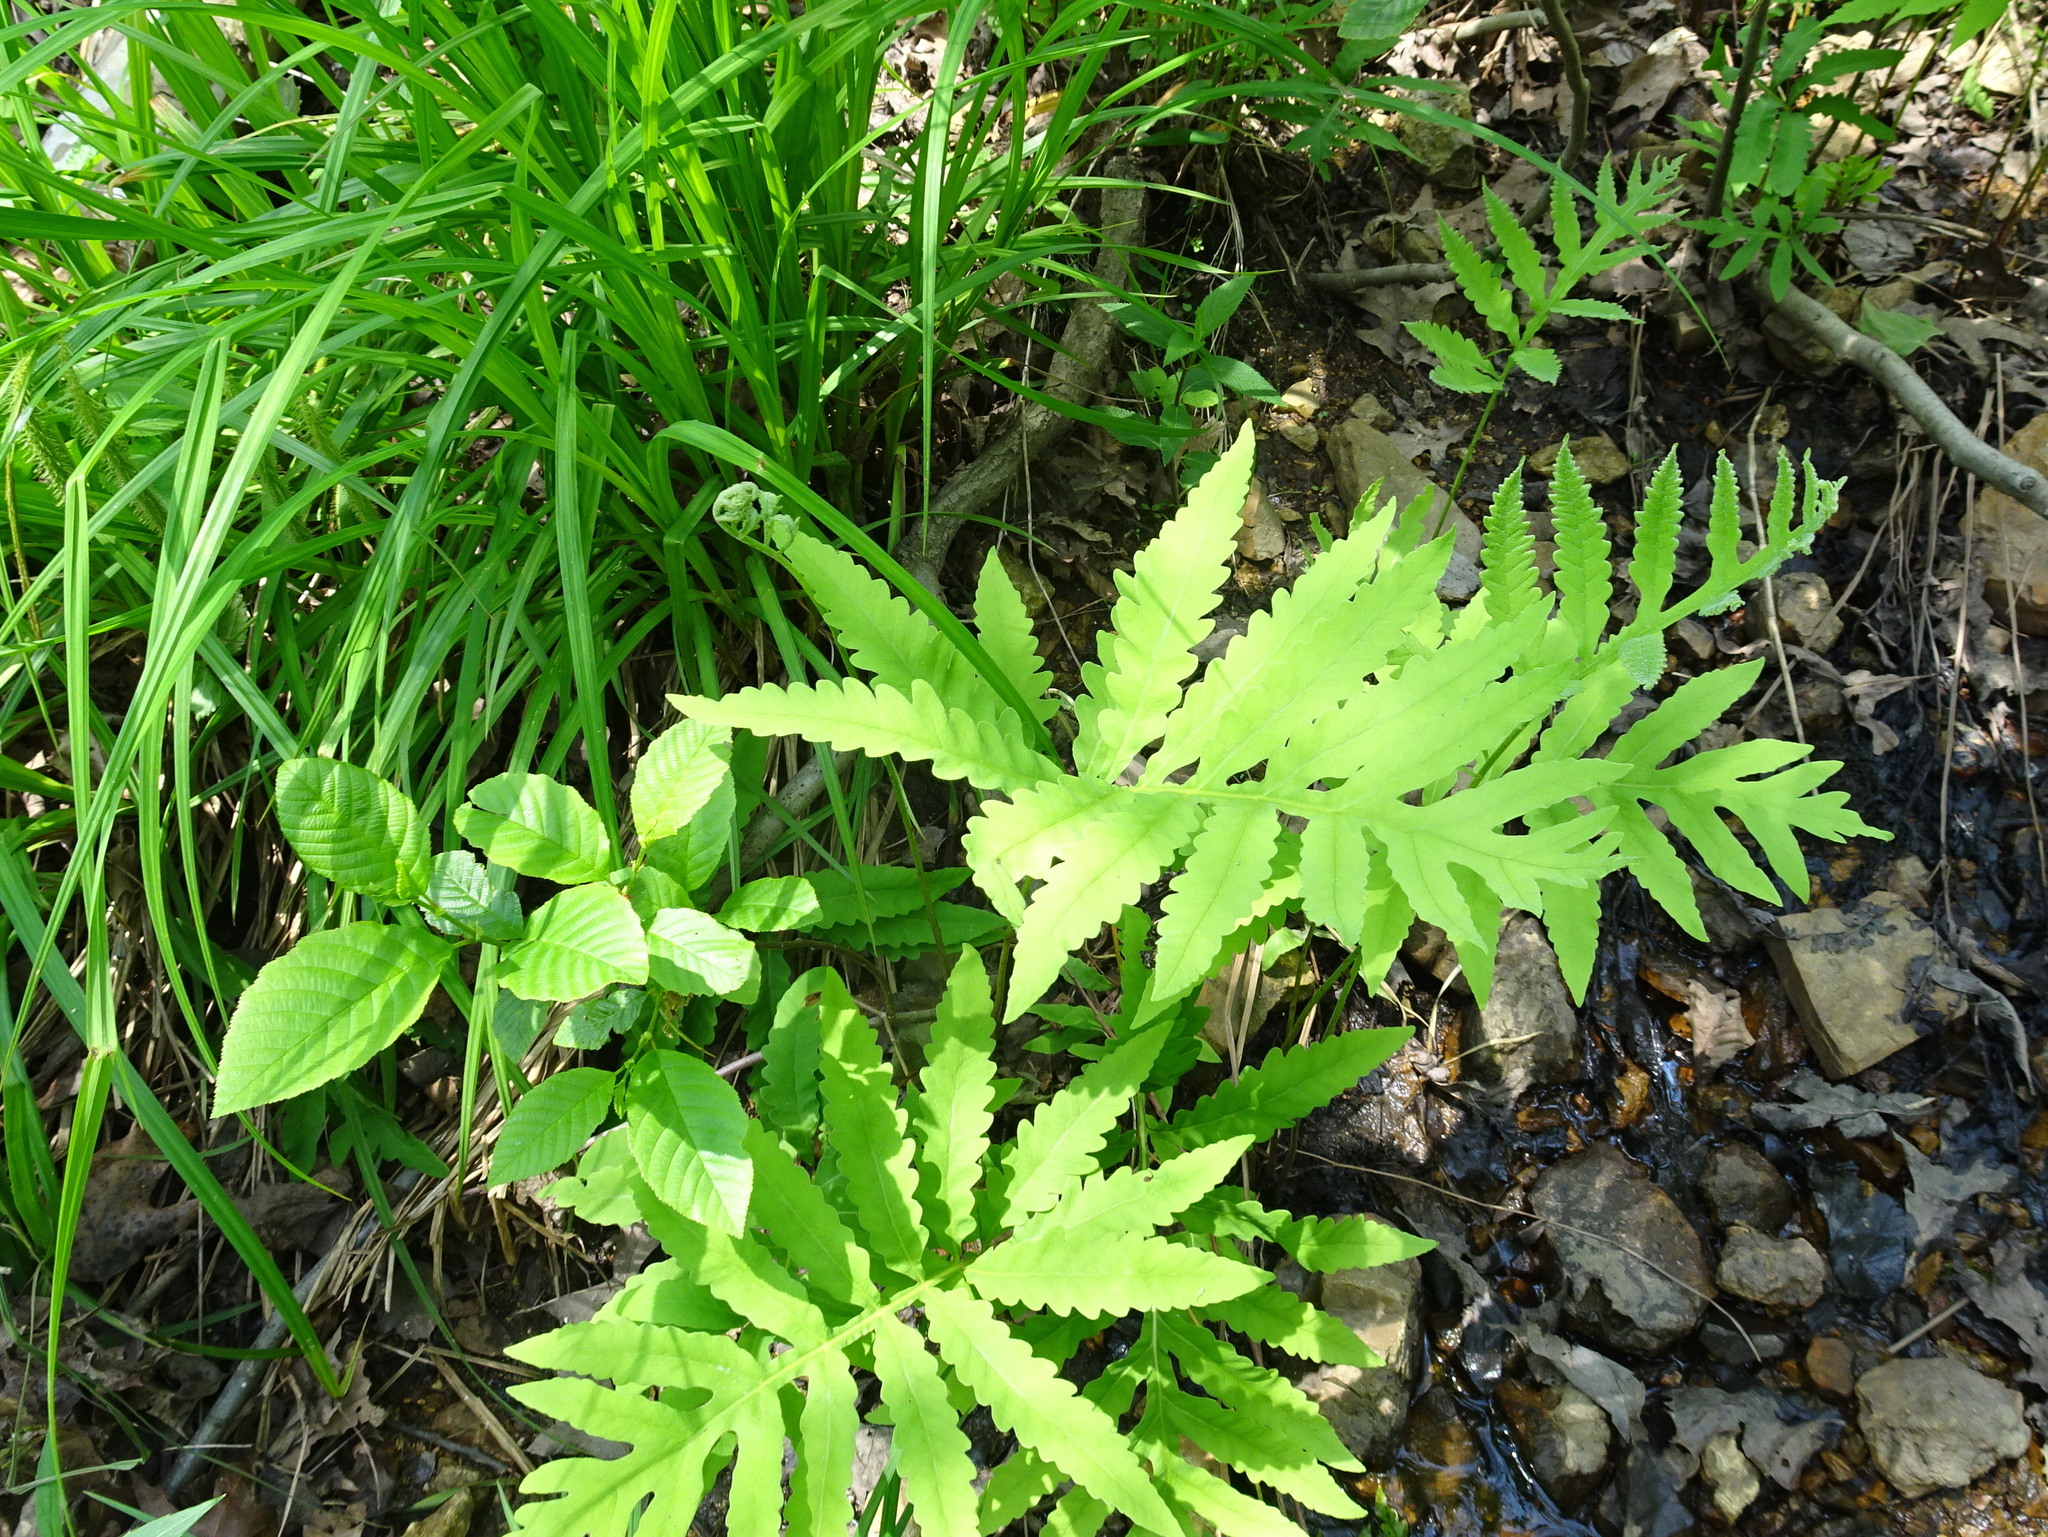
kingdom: Plantae
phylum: Tracheophyta
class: Polypodiopsida
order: Polypodiales
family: Onocleaceae
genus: Onoclea
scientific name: Onoclea sensibilis
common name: Sensitive fern
